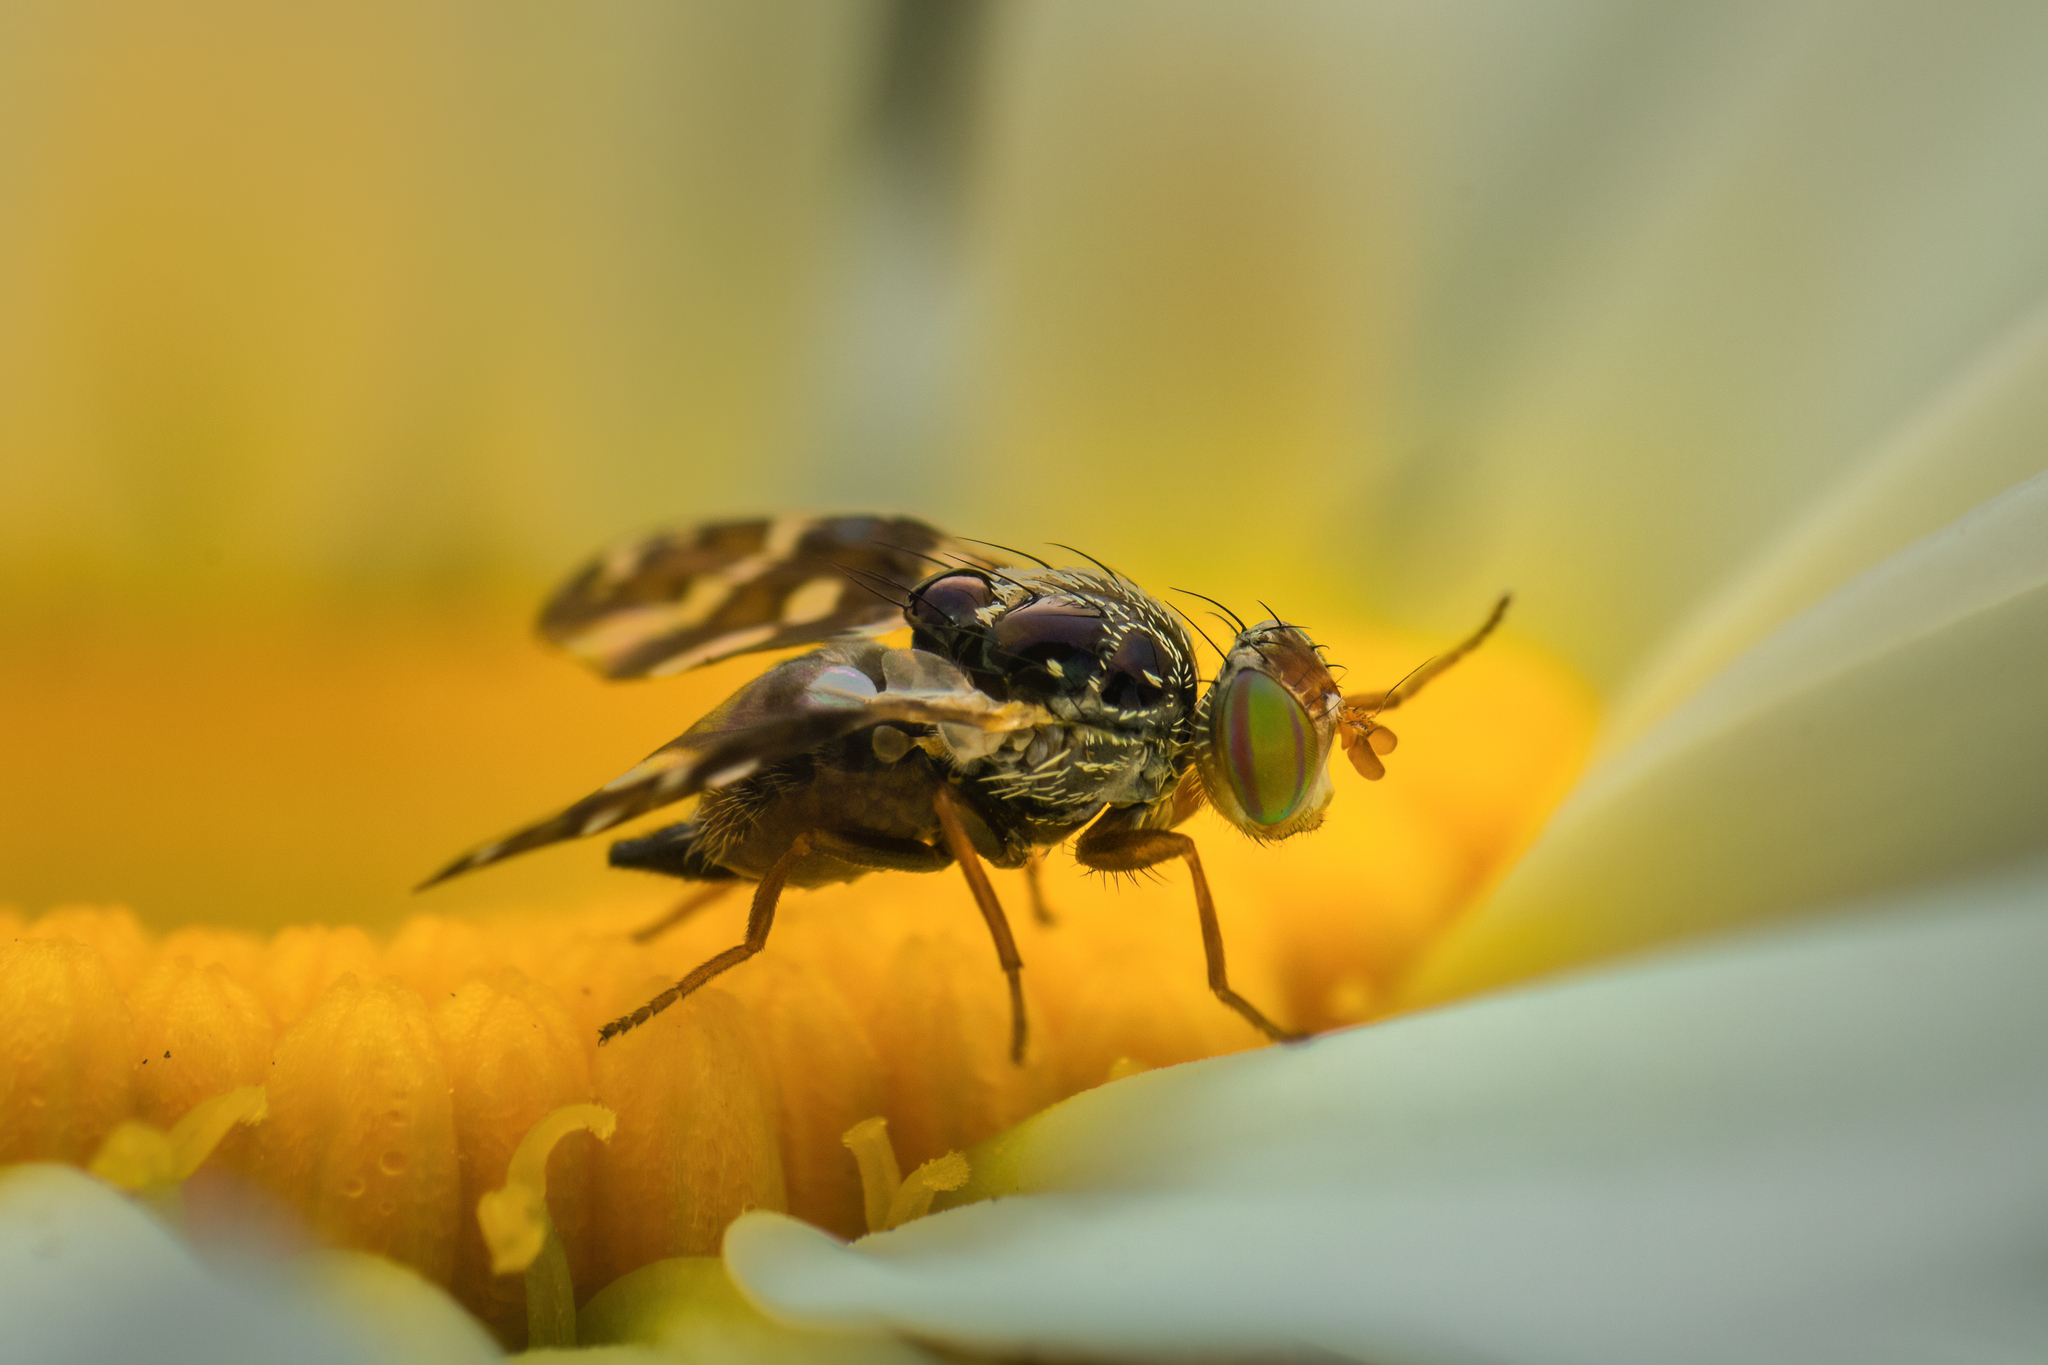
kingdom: Animalia
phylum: Arthropoda
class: Insecta
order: Diptera
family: Tephritidae
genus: Procecidochares
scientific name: Procecidochares utilis
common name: Eupatorium gall fly
